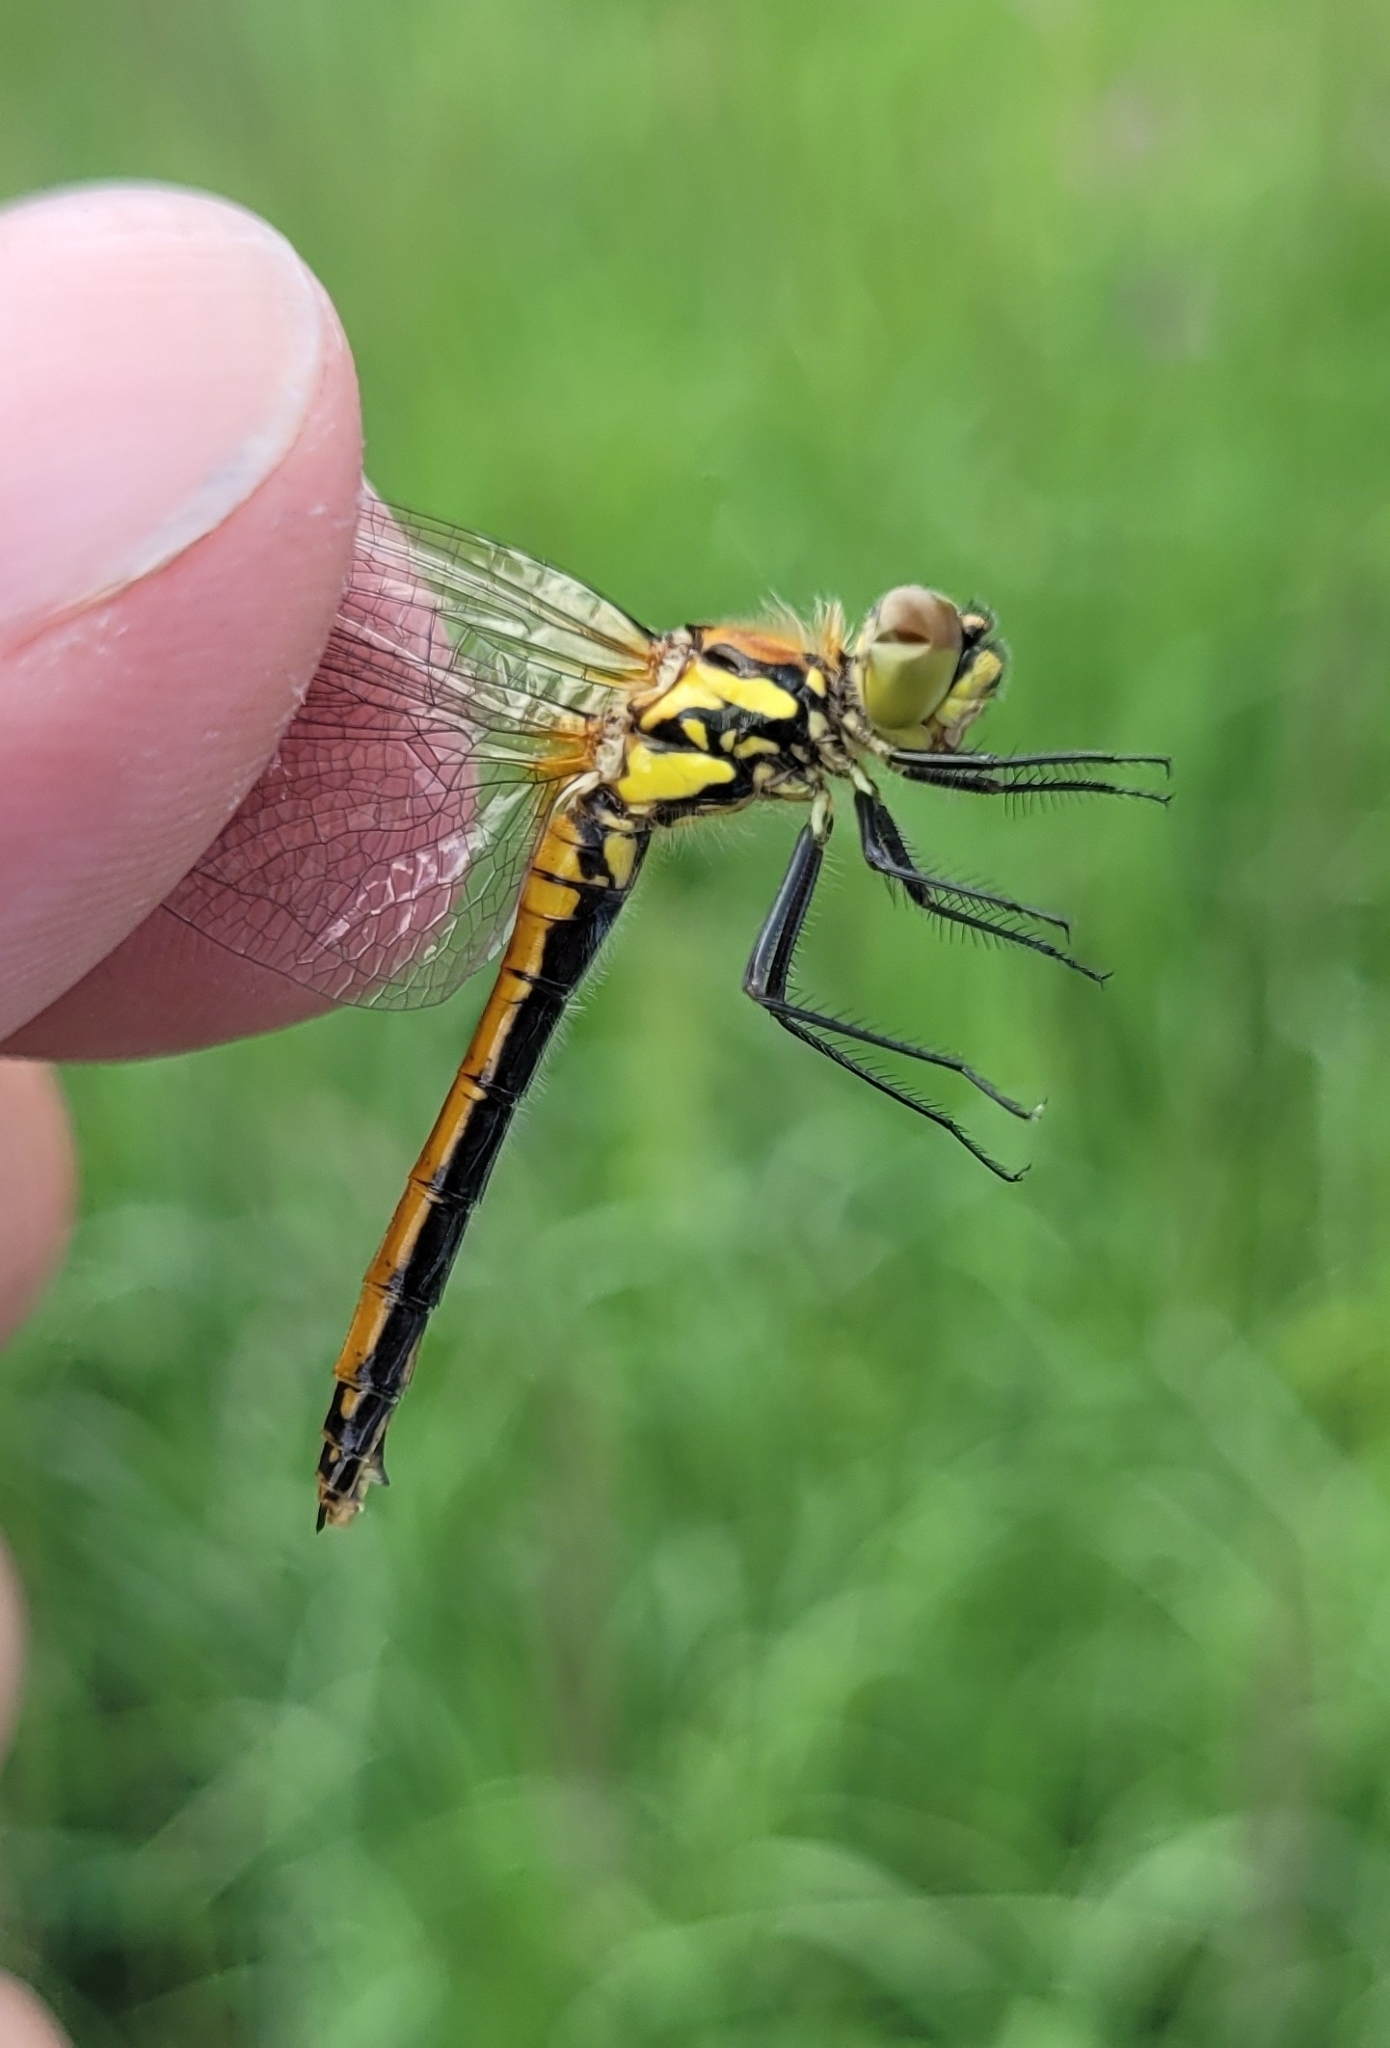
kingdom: Animalia
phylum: Arthropoda
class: Insecta
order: Odonata
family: Libellulidae
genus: Sympetrum
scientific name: Sympetrum danae
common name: Black darter
